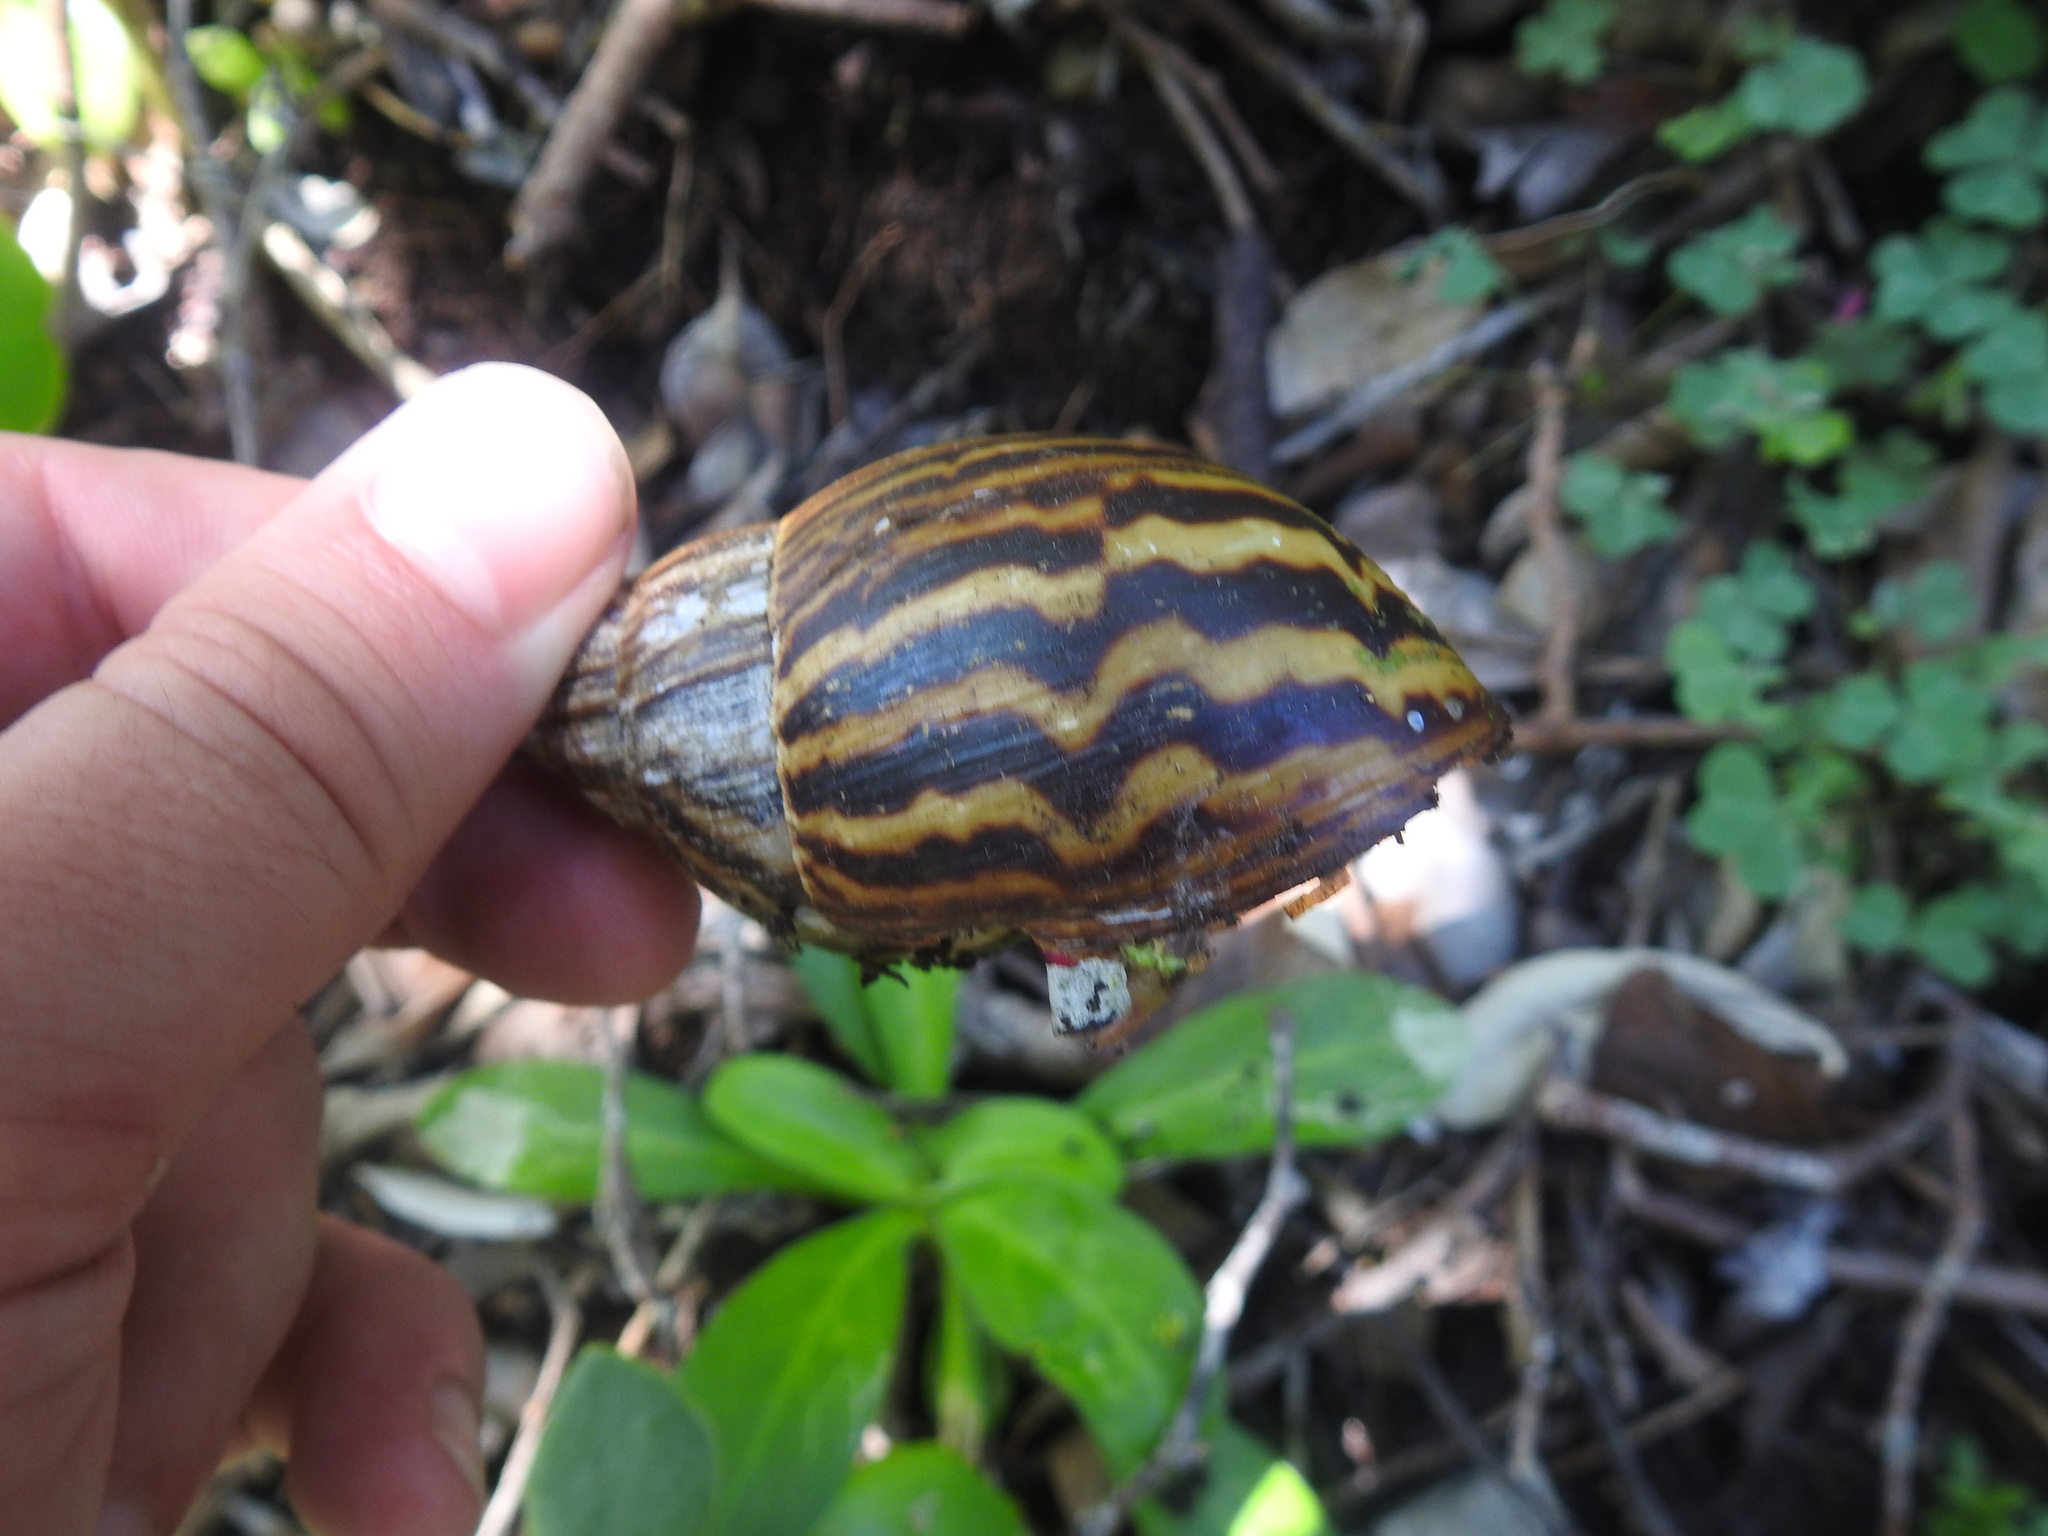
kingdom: Animalia
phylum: Mollusca
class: Gastropoda
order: Stylommatophora
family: Achatinidae
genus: Cochlitoma
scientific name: Cochlitoma zebra
